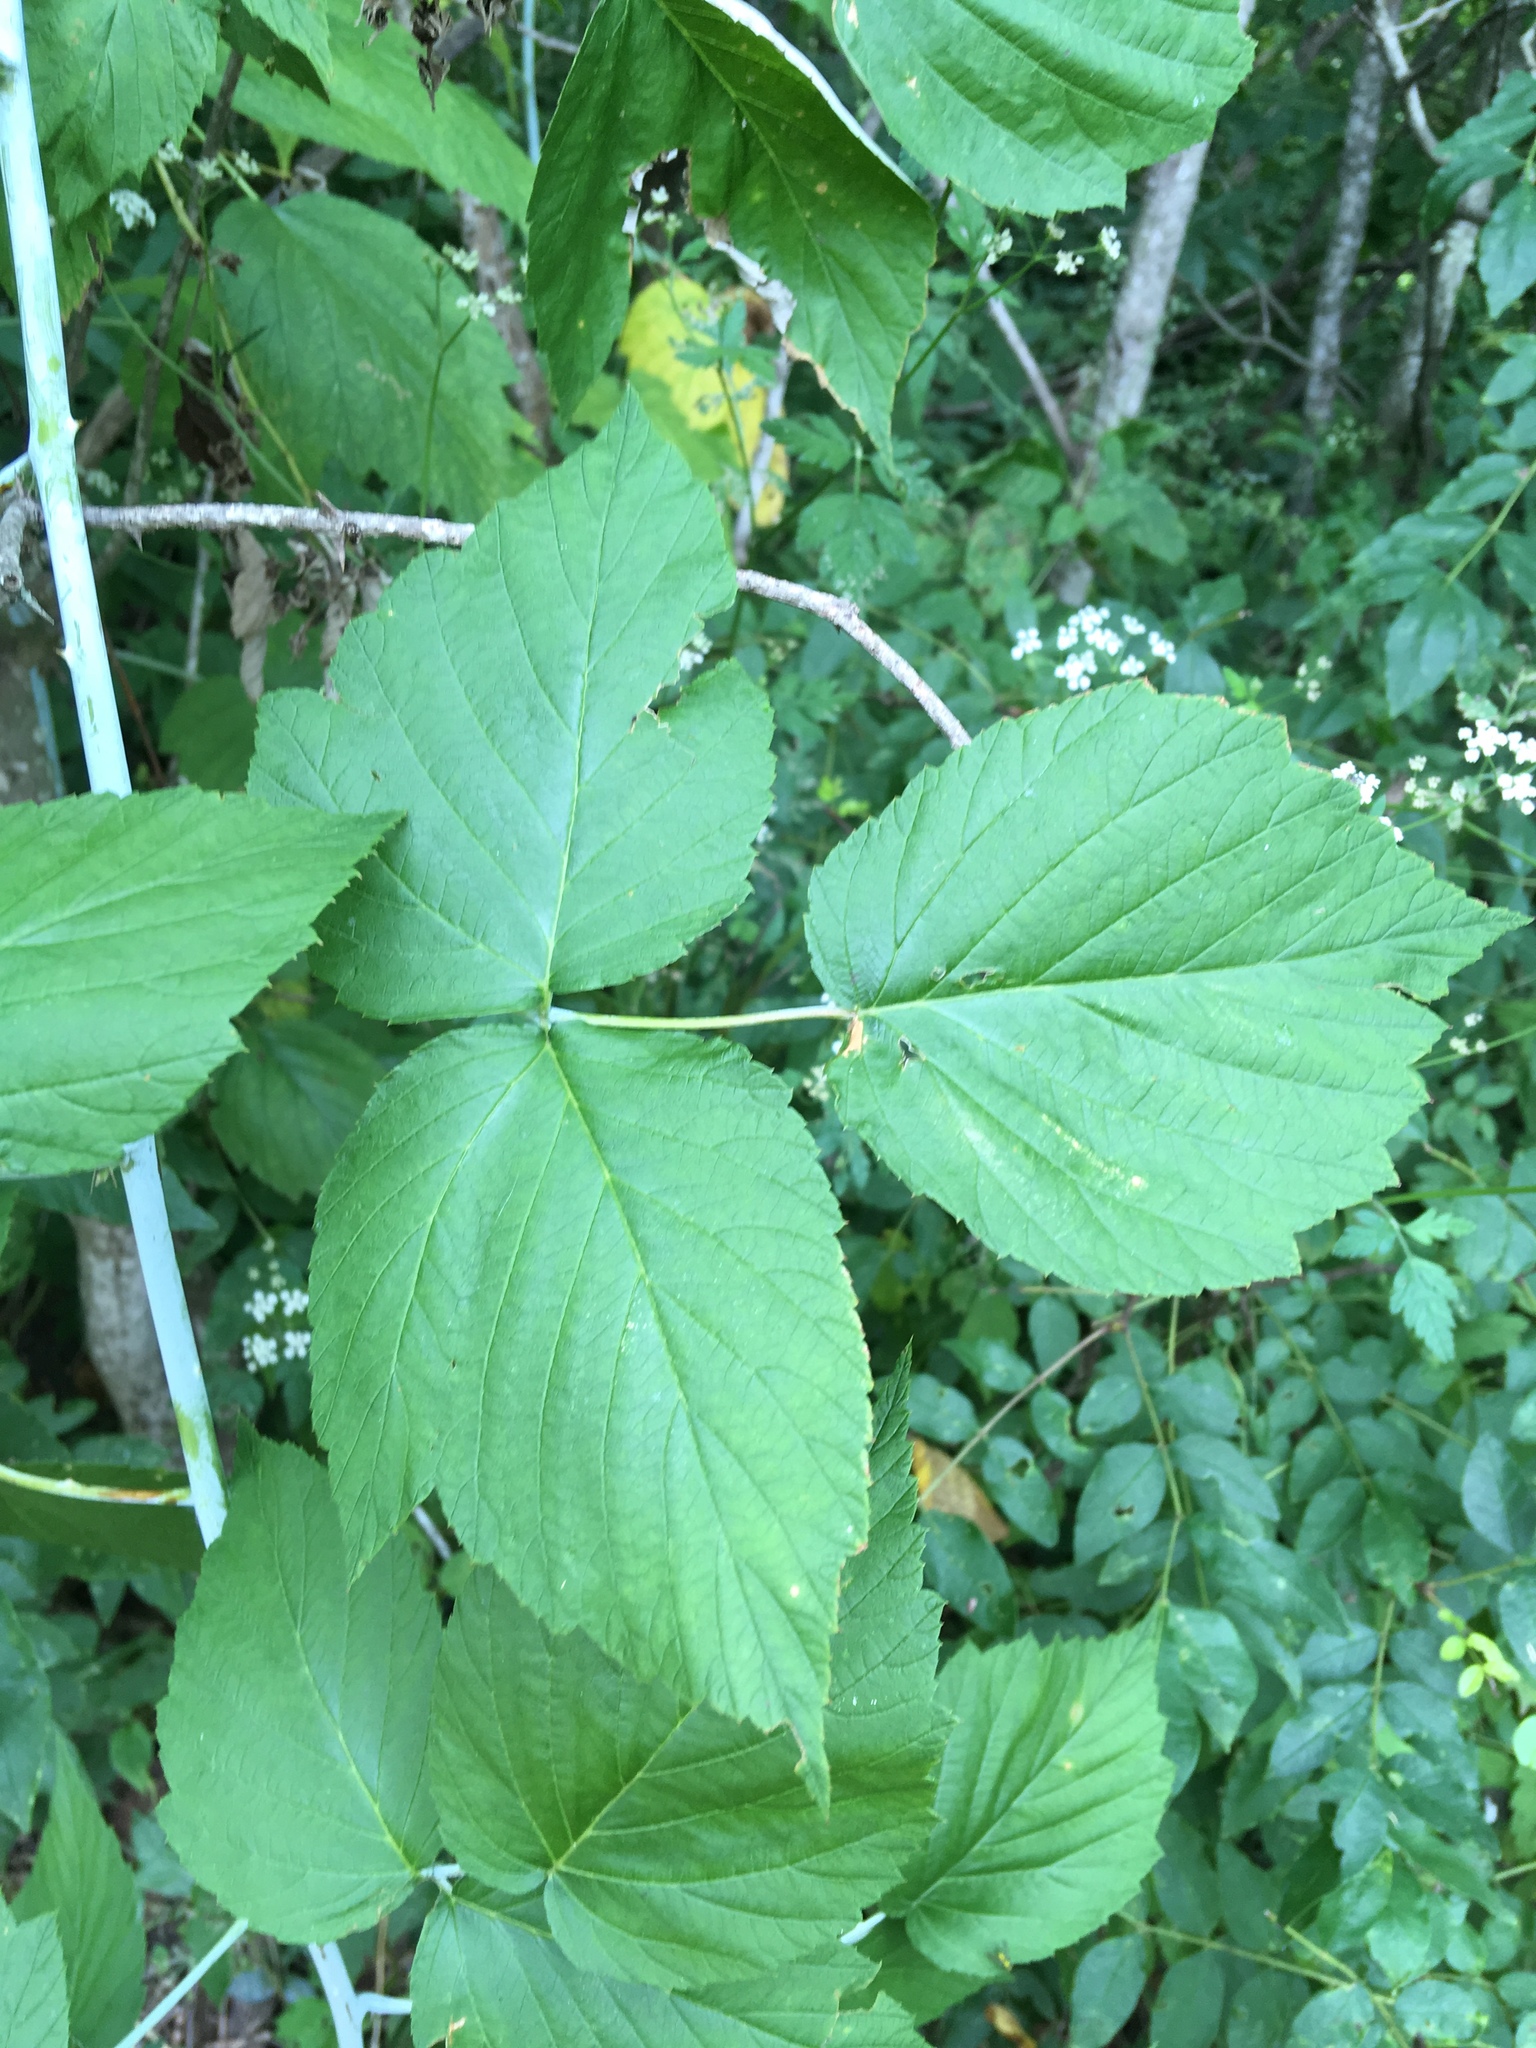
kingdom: Plantae
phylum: Tracheophyta
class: Magnoliopsida
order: Rosales
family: Rosaceae
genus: Rubus
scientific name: Rubus occidentalis
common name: Black raspberry
